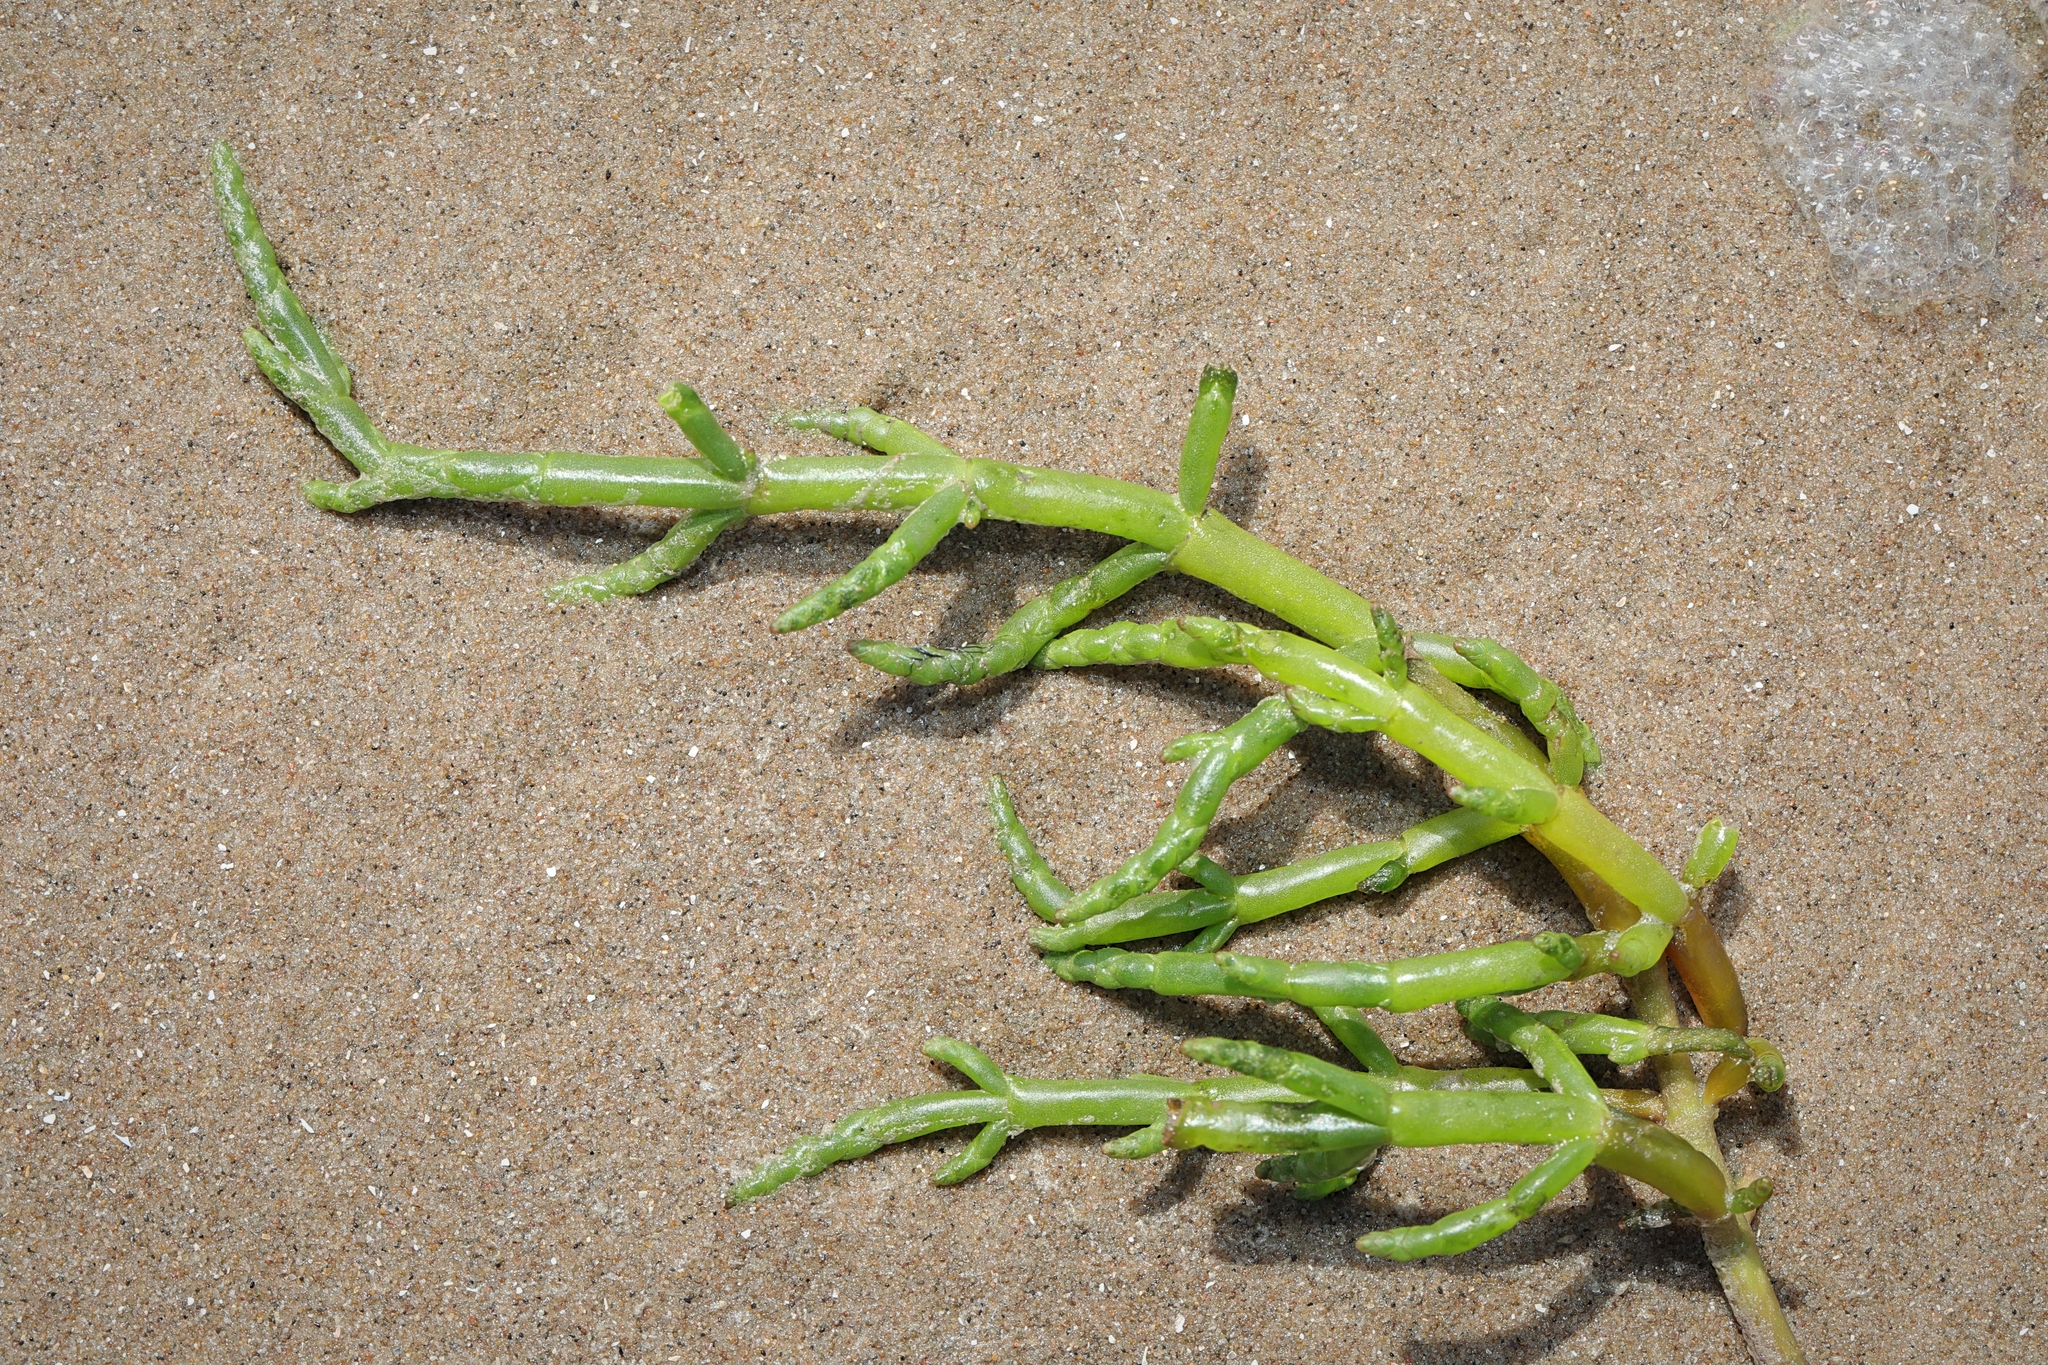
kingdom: Plantae
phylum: Tracheophyta
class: Magnoliopsida
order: Caryophyllales
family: Amaranthaceae
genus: Salicornia
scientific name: Salicornia europaea
